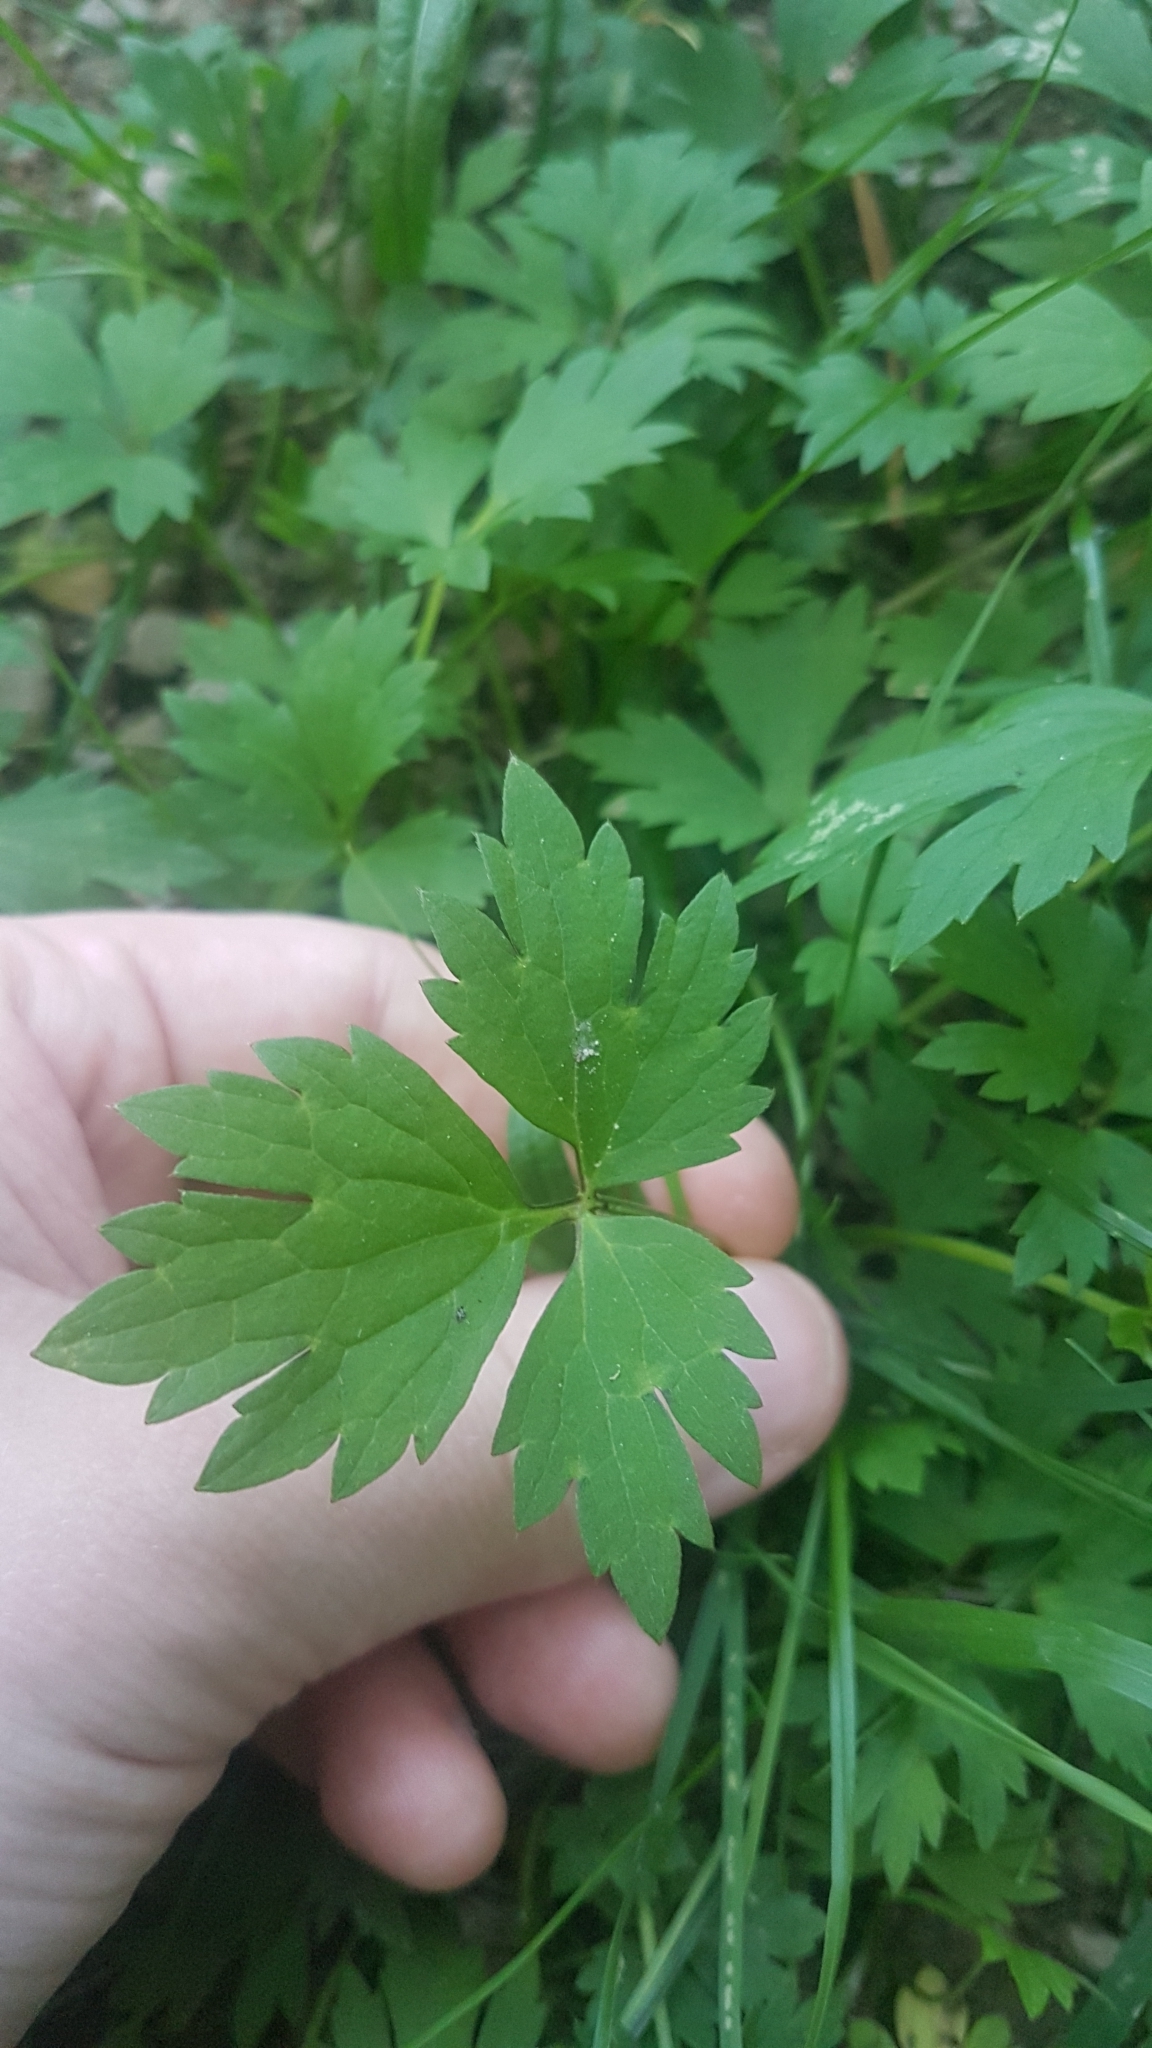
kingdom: Plantae
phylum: Tracheophyta
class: Magnoliopsida
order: Ranunculales
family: Ranunculaceae
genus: Ranunculus
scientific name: Ranunculus repens
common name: Creeping buttercup
